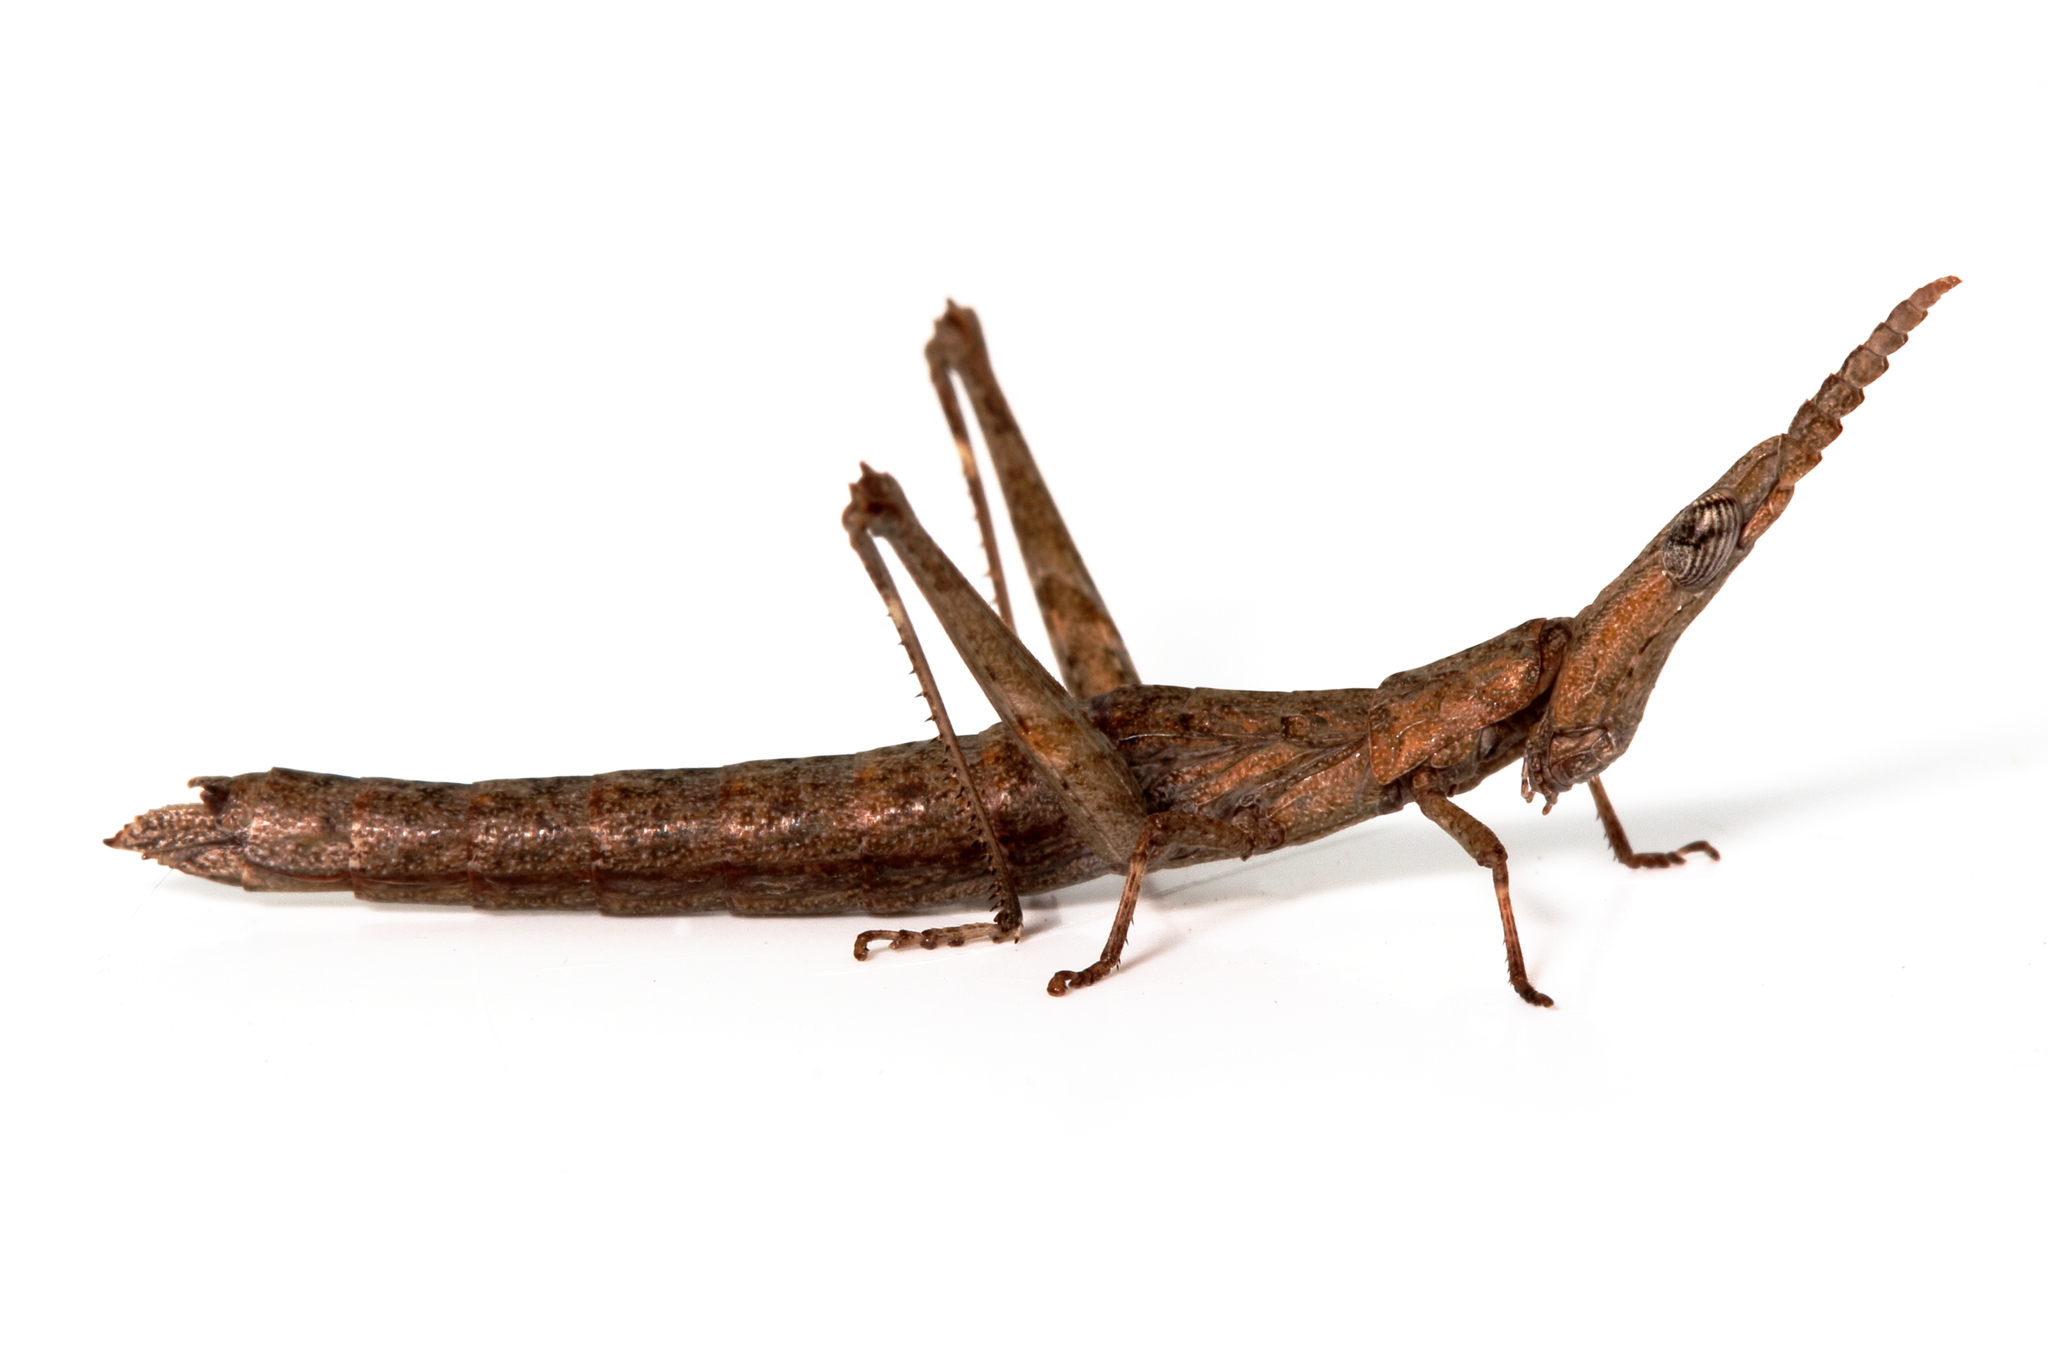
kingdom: Animalia
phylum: Arthropoda
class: Insecta
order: Orthoptera
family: Morabidae
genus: Vandiemenella
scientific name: Vandiemenella viatica
